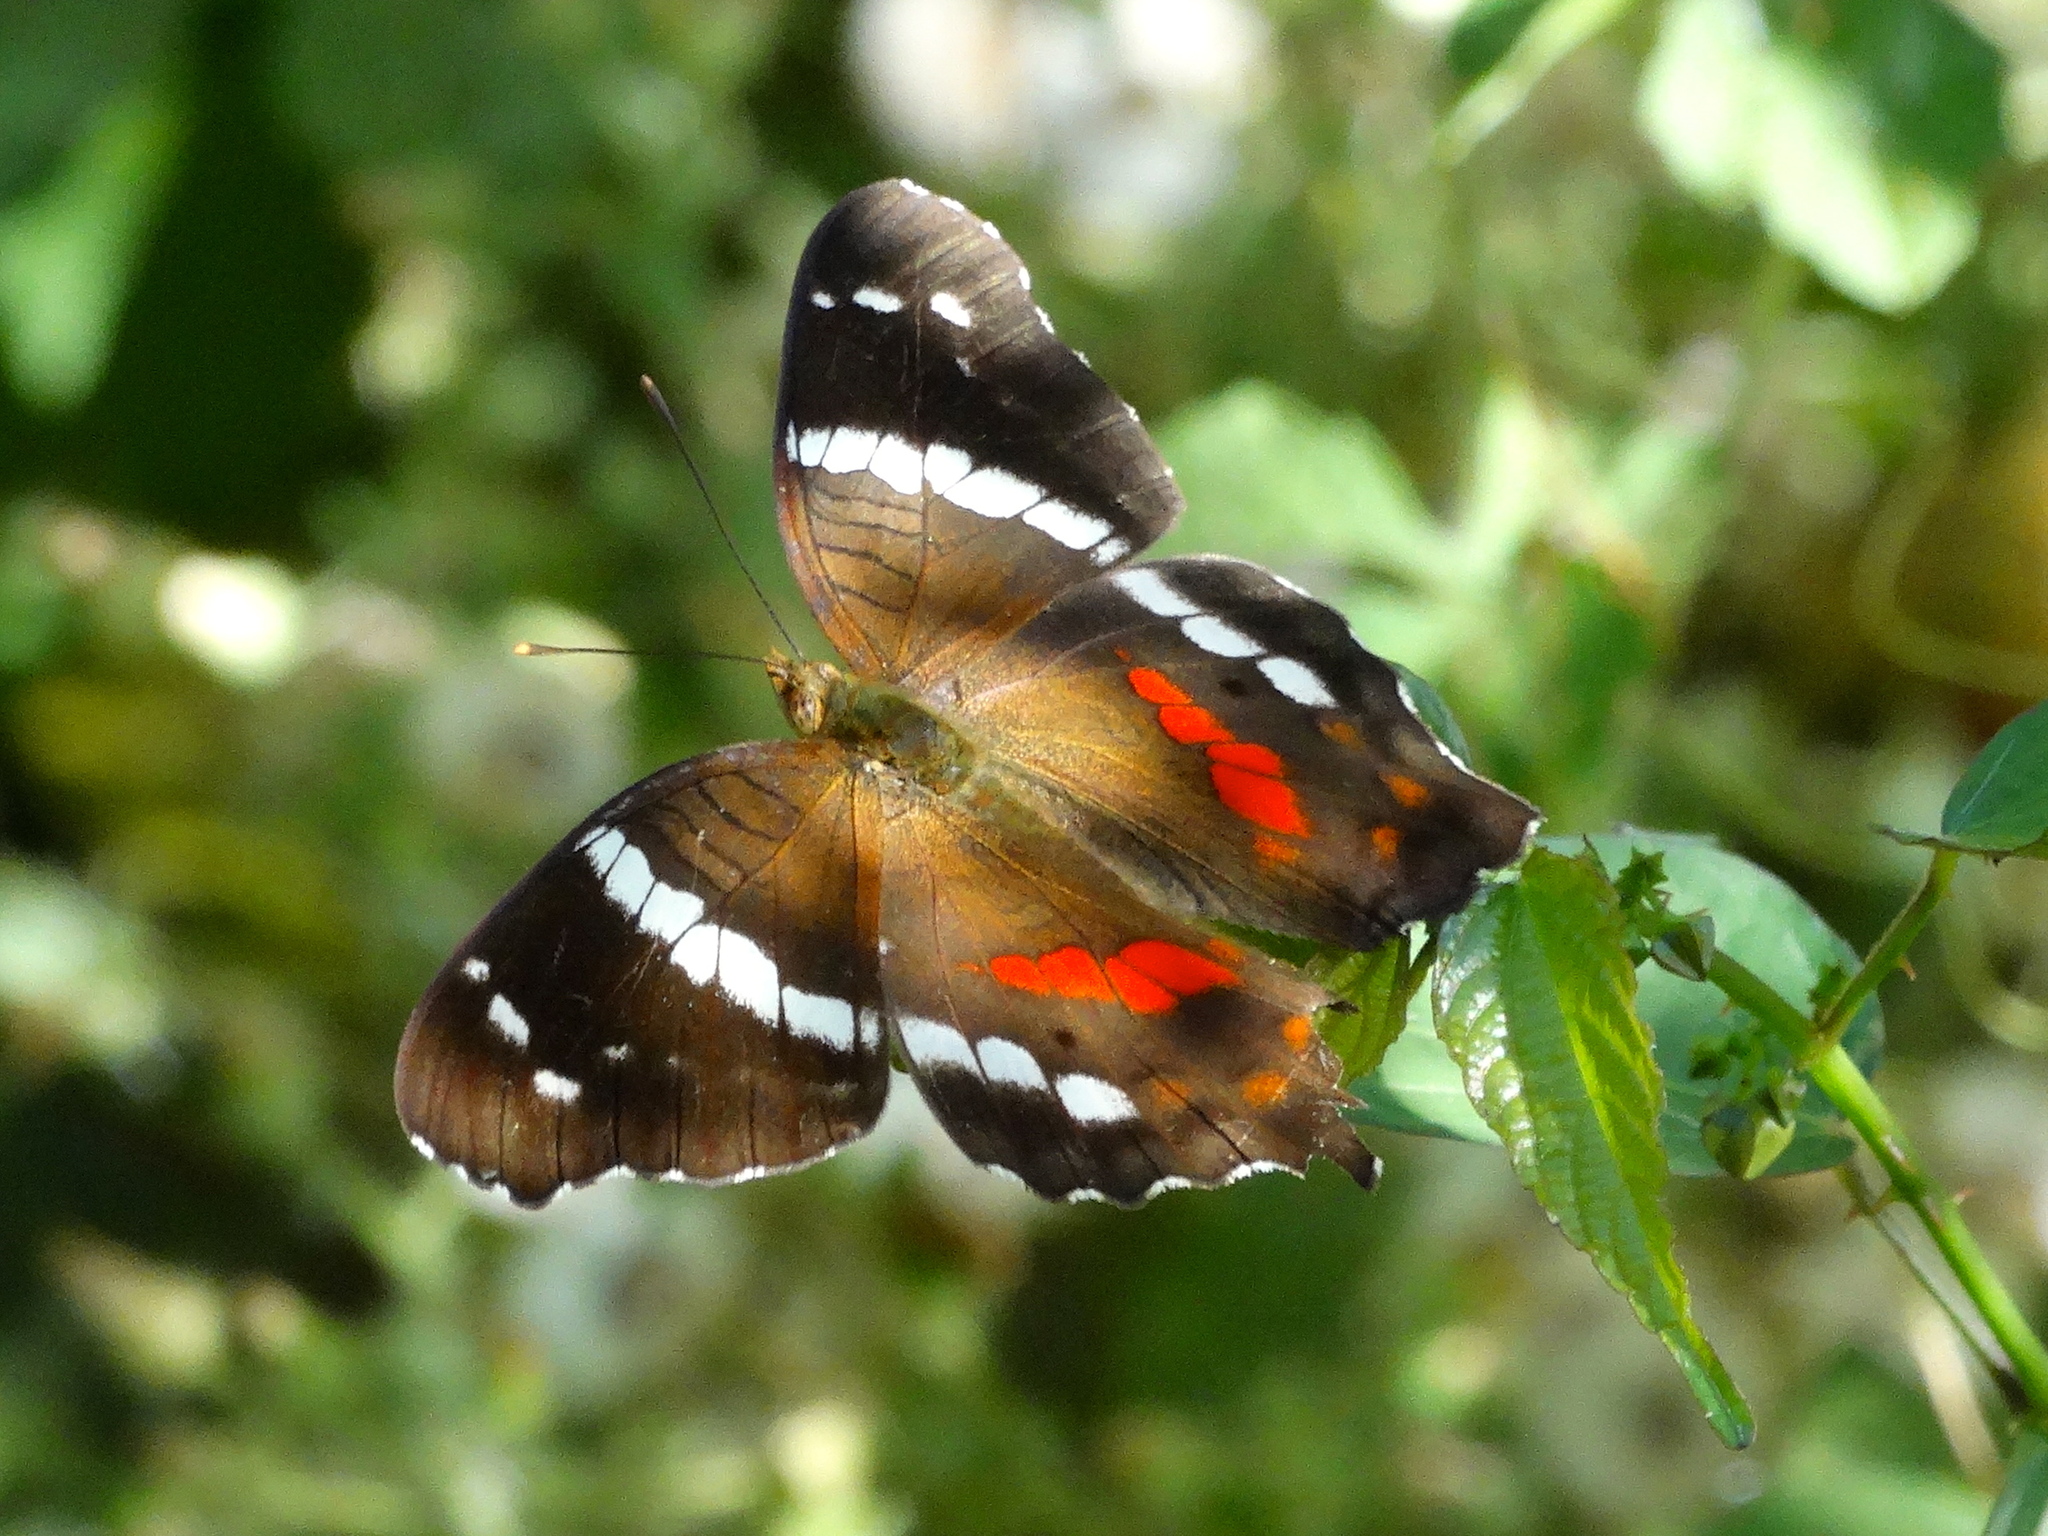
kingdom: Animalia
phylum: Arthropoda
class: Insecta
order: Lepidoptera
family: Nymphalidae
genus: Anartia
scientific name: Anartia fatima
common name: Banded peacock
